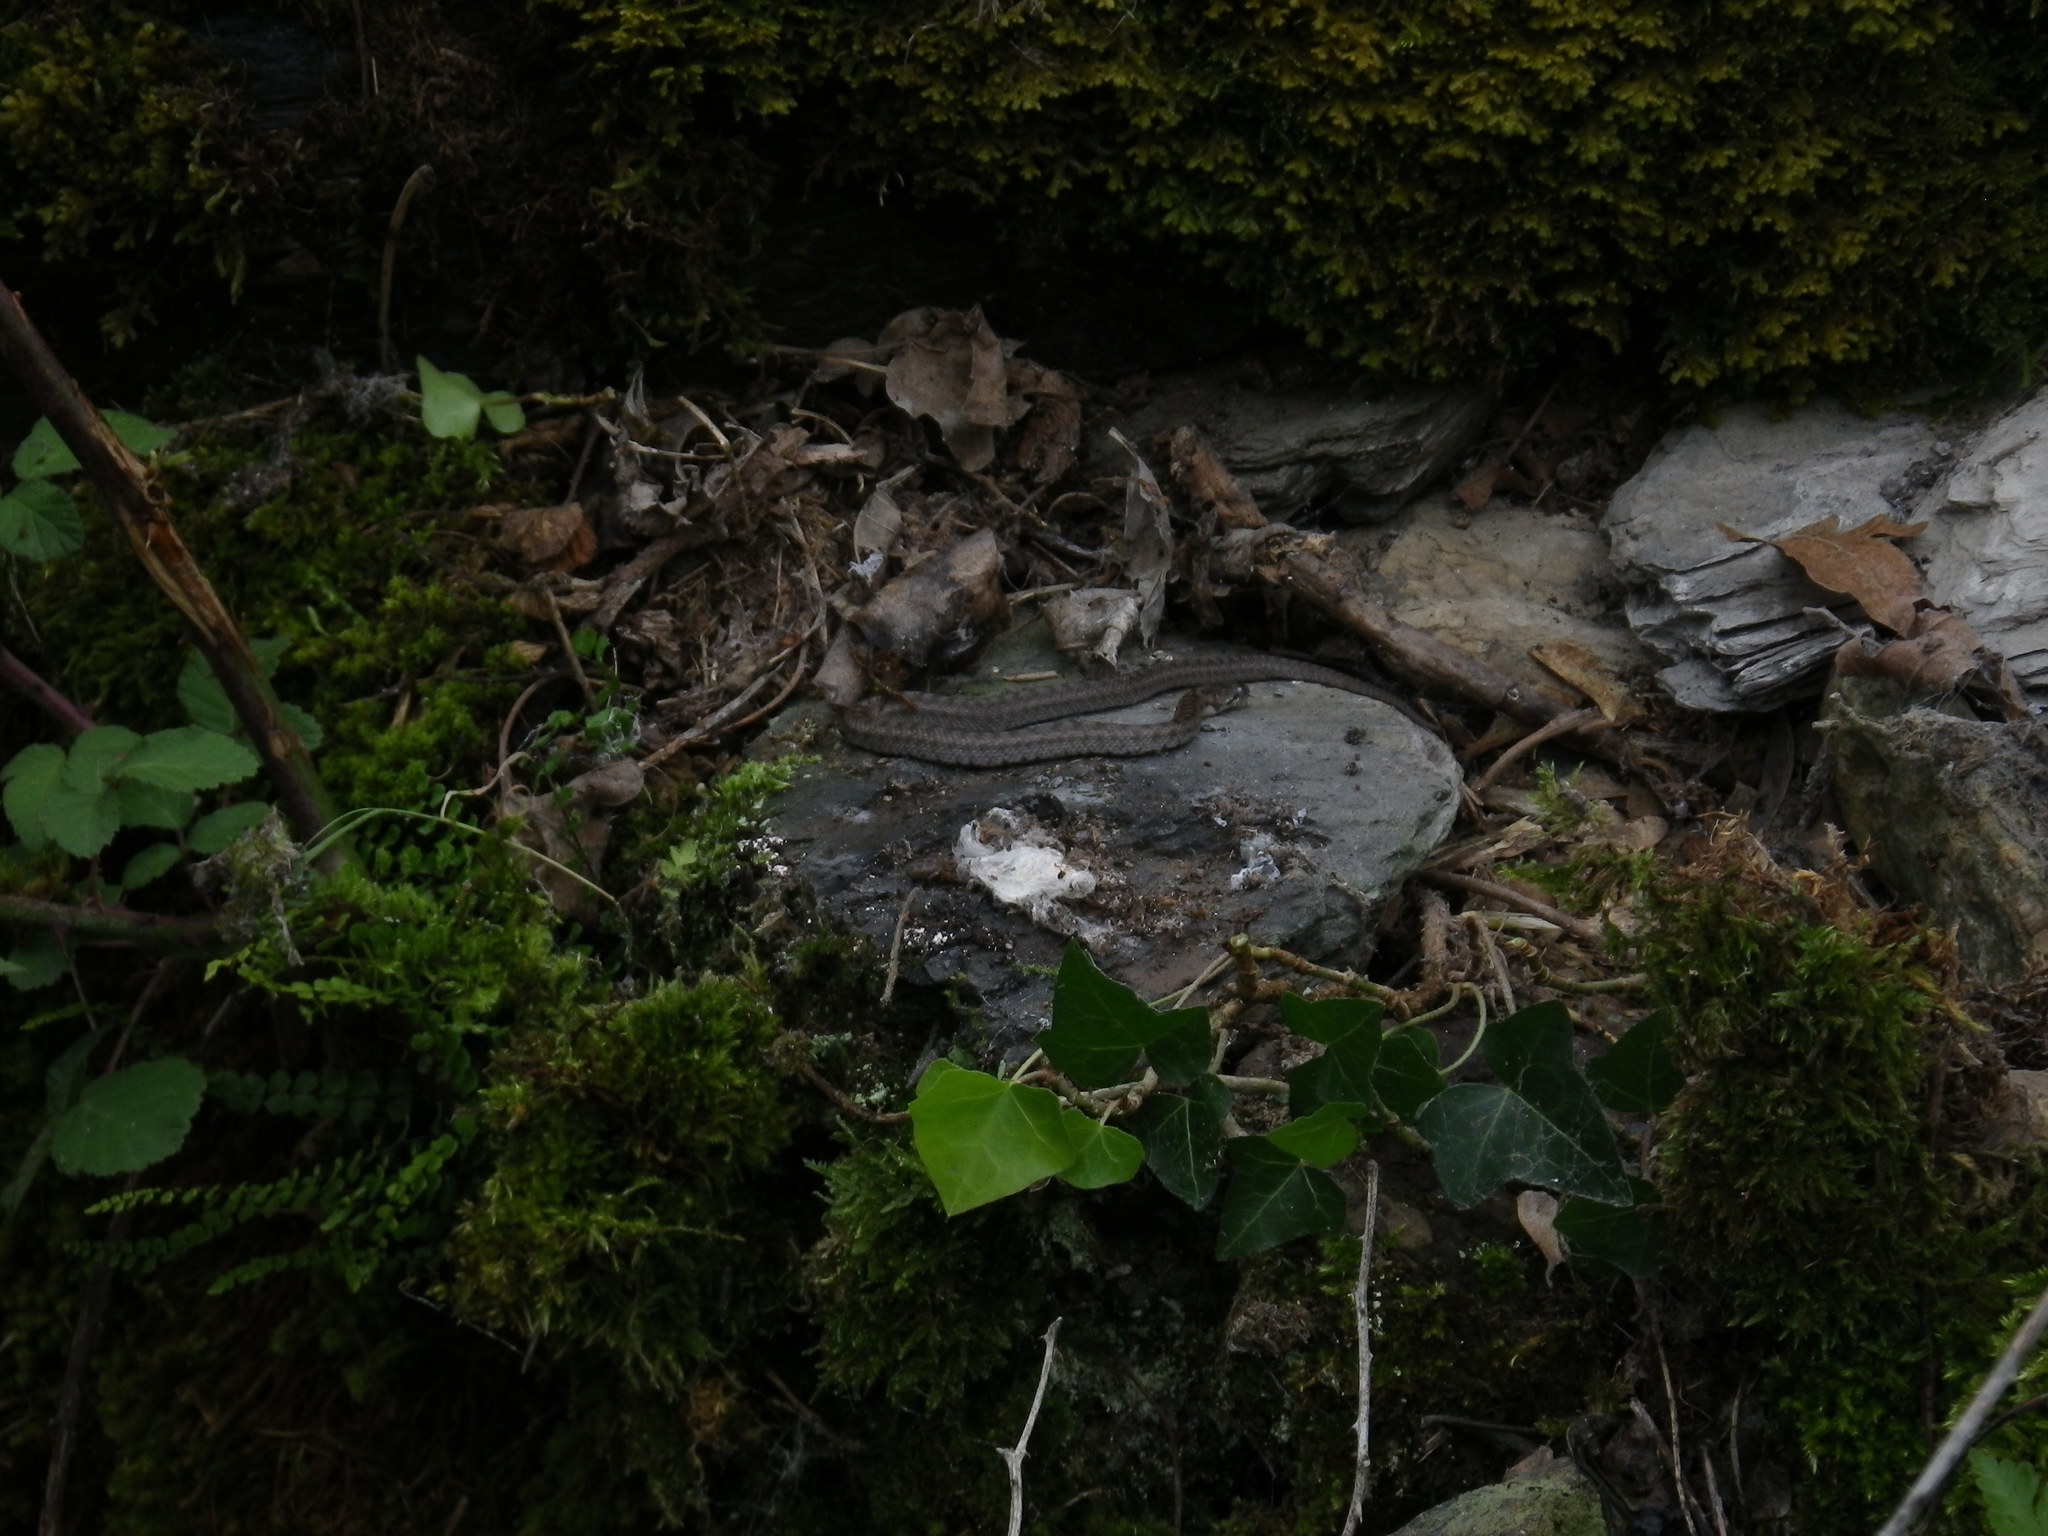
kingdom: Animalia
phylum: Chordata
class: Squamata
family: Colubridae
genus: Coronella
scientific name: Coronella girondica
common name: Southern smooth snake
